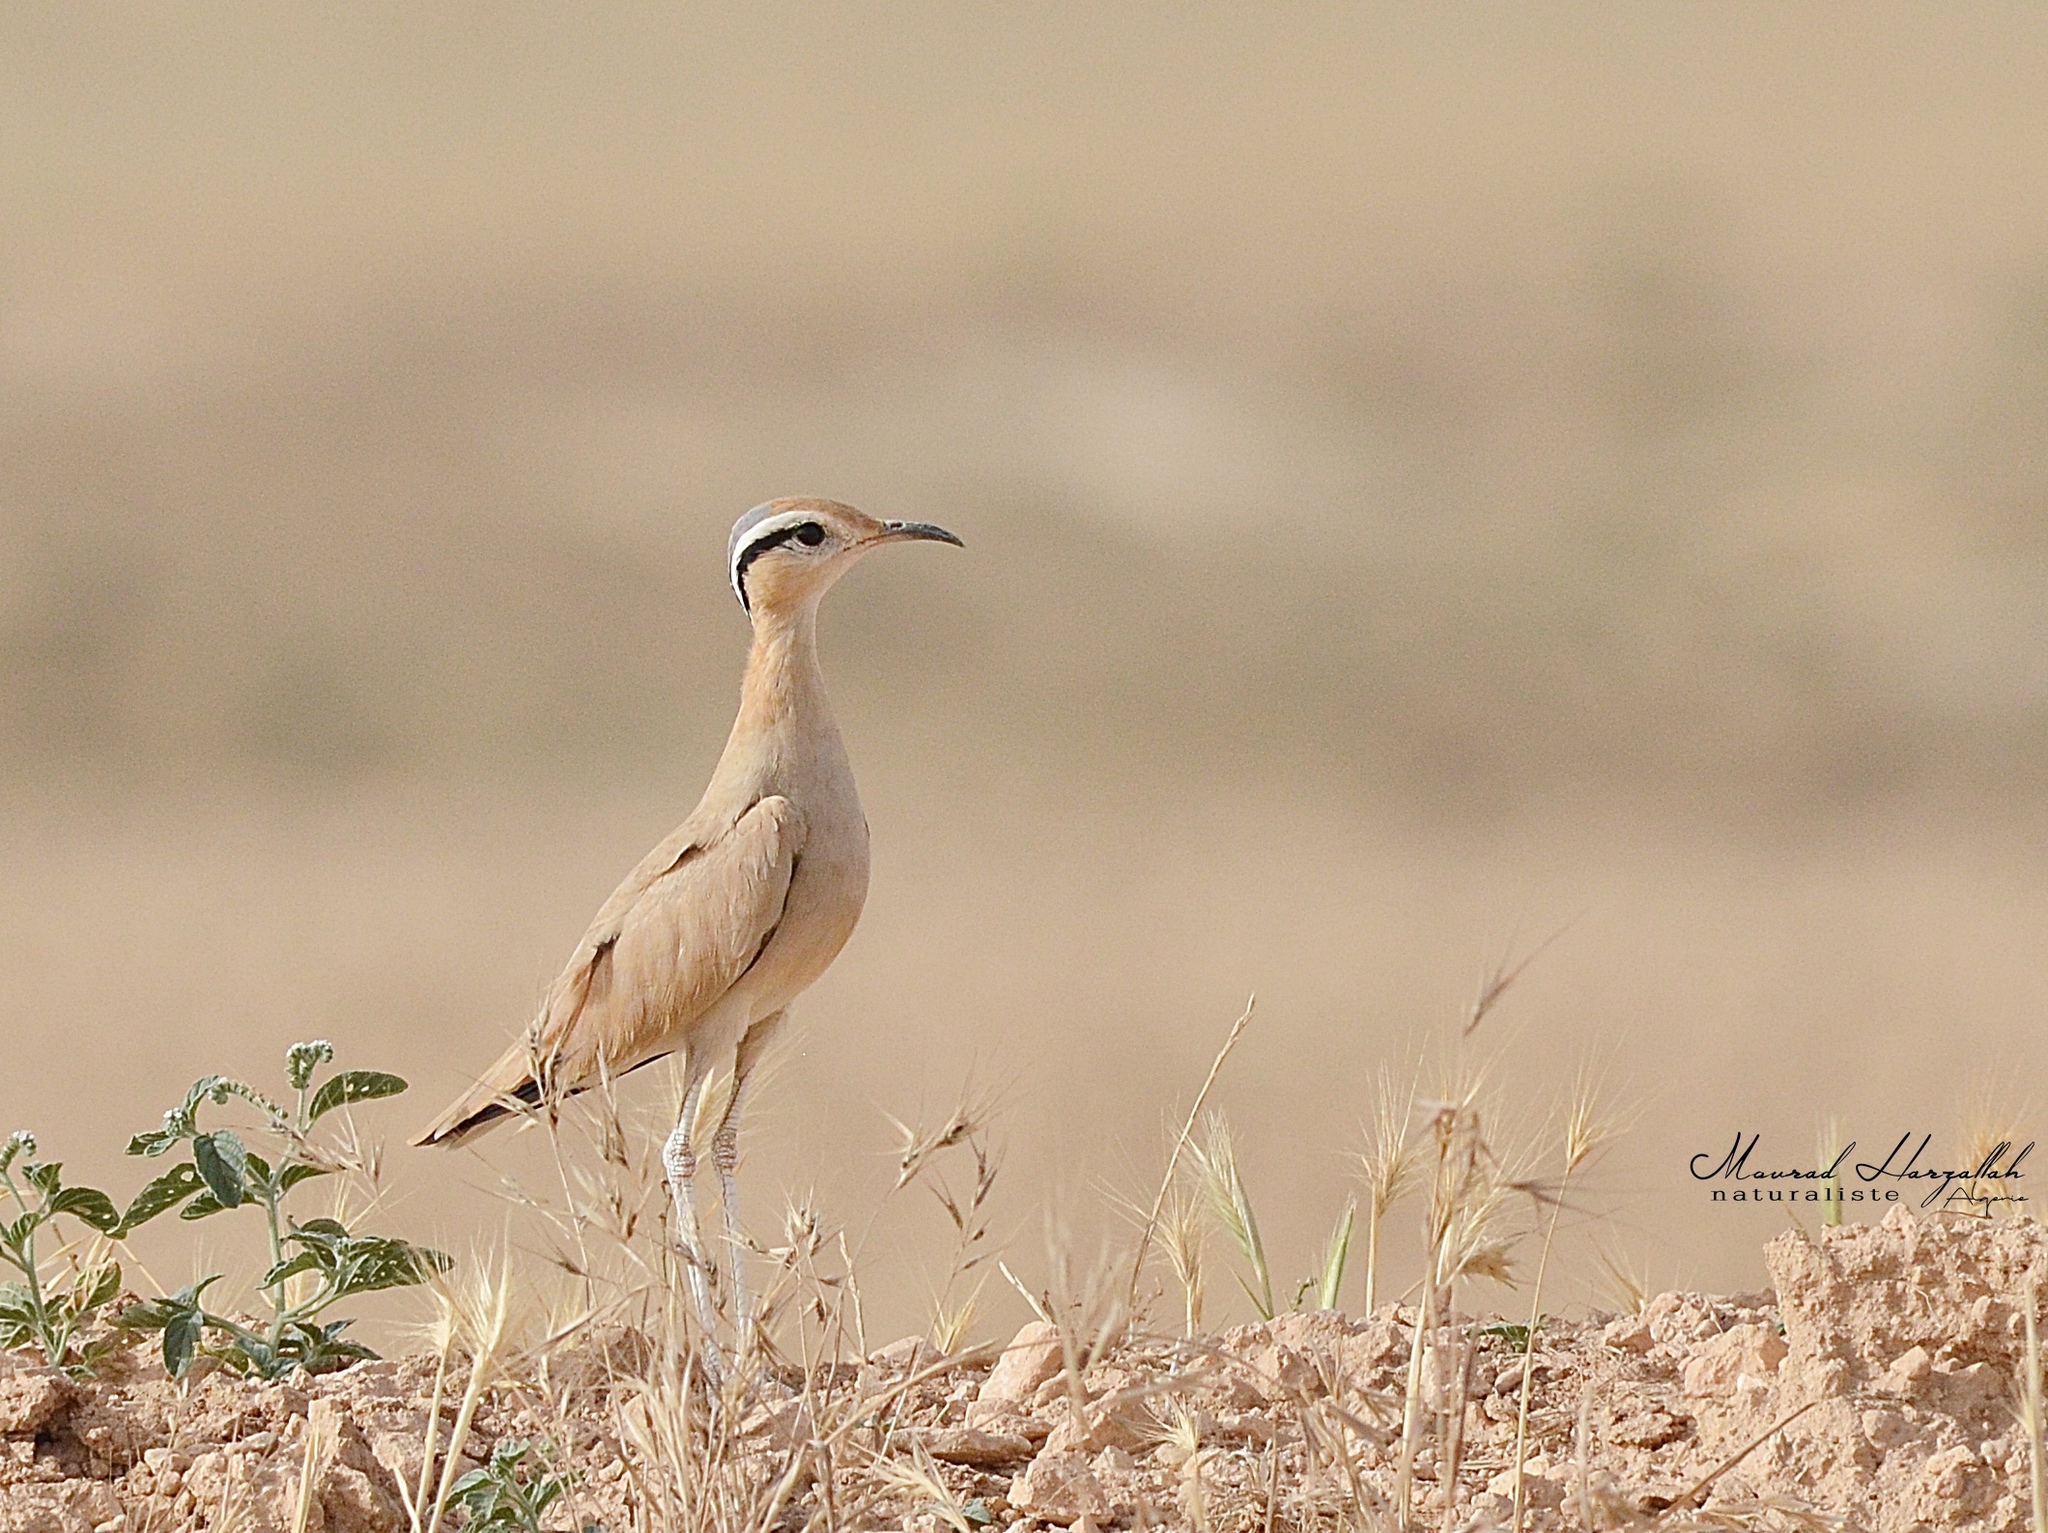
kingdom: Animalia
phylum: Chordata
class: Aves
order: Charadriiformes
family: Glareolidae
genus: Cursorius
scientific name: Cursorius cursor
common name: Cream-colored courser
